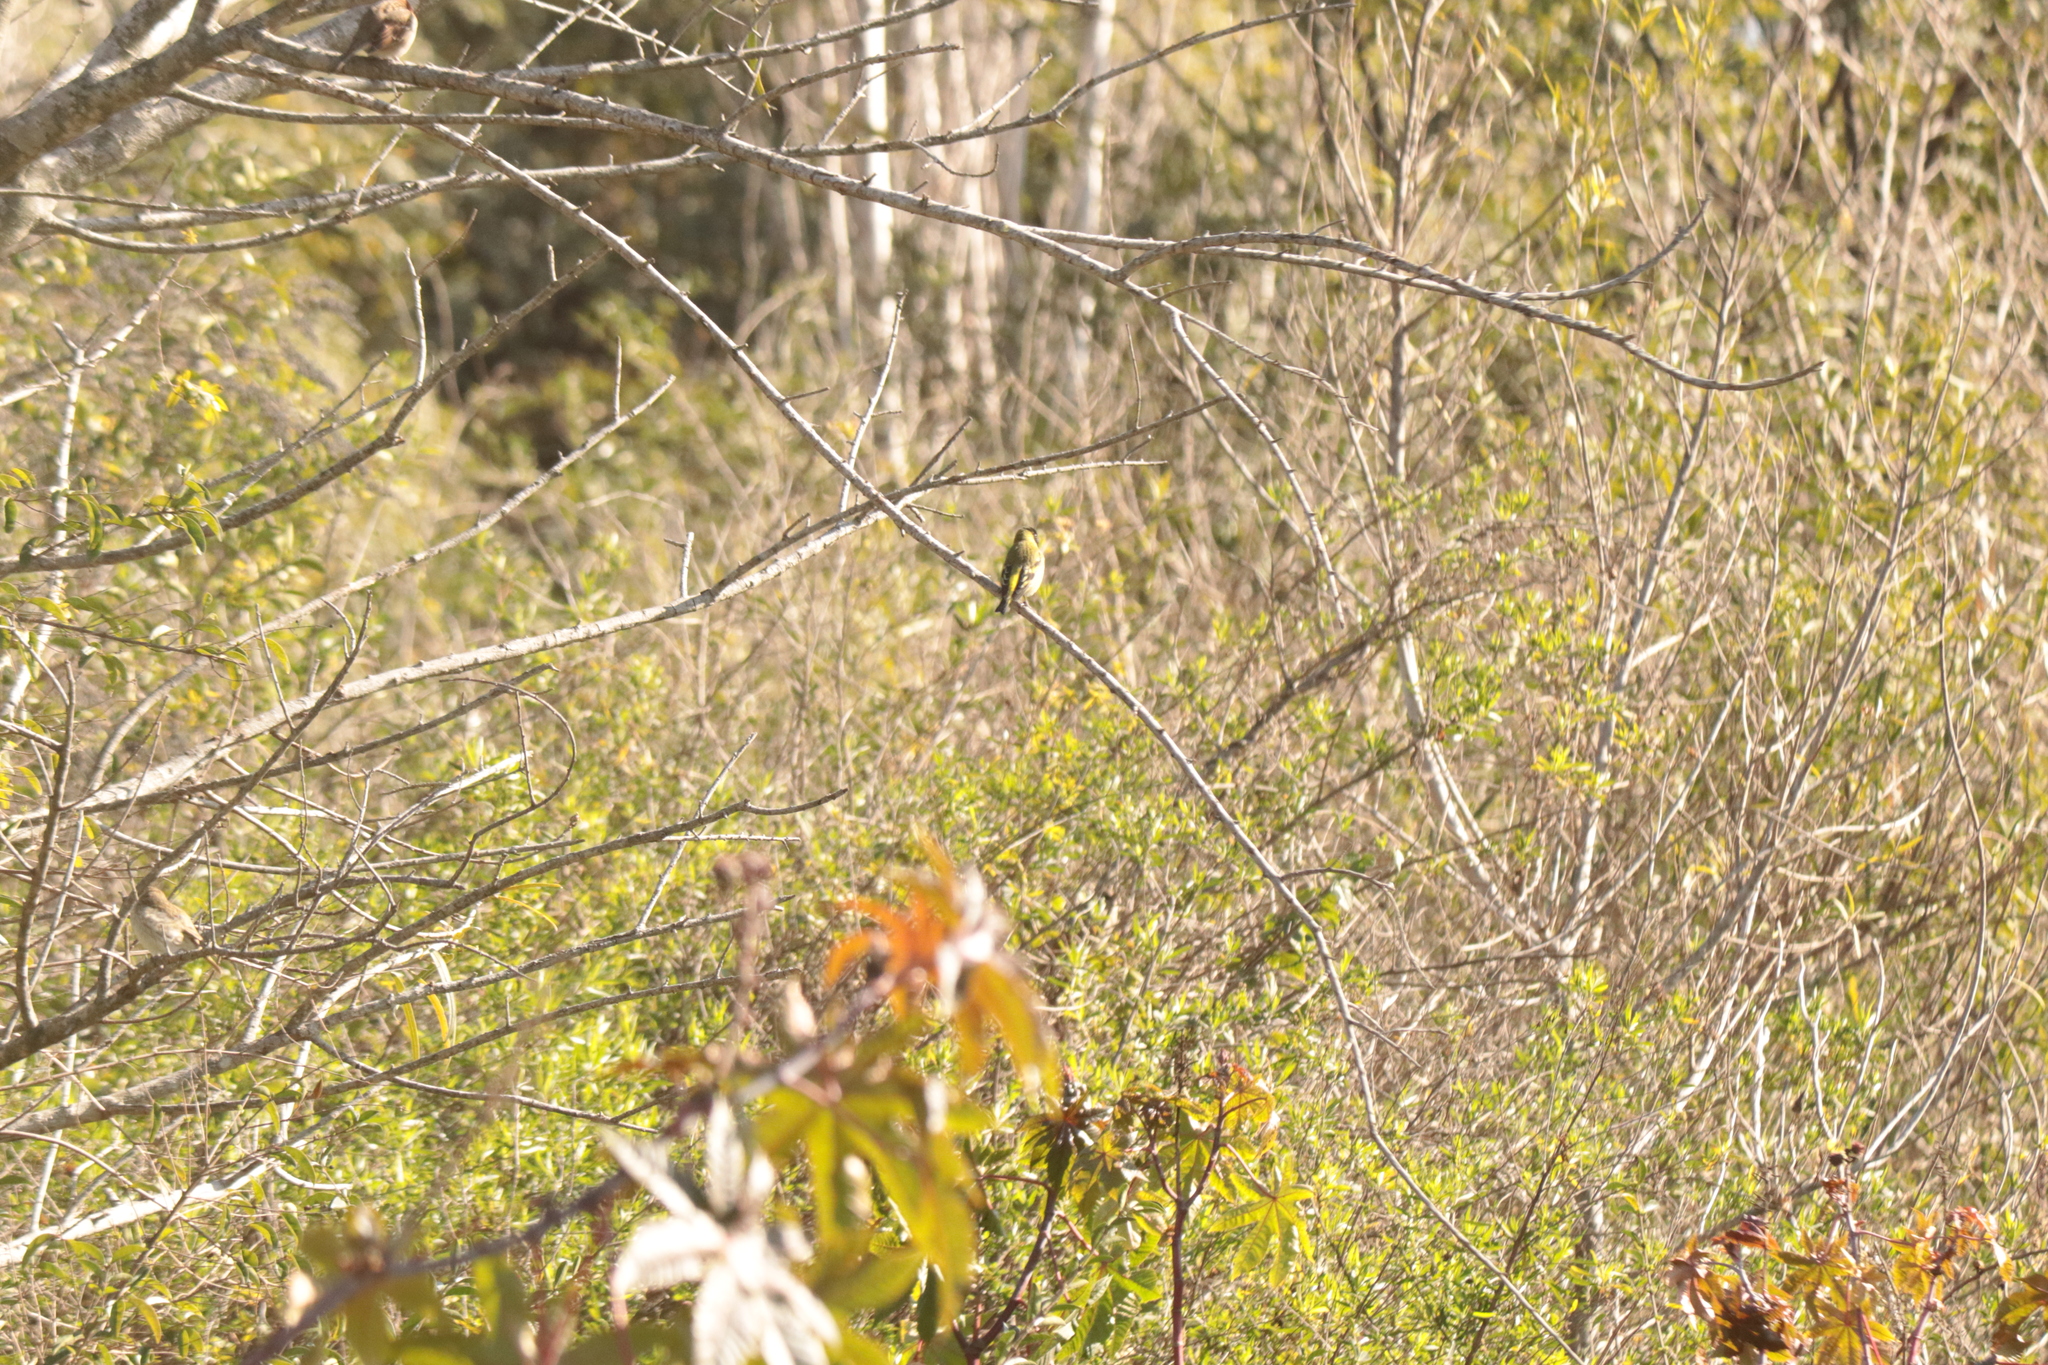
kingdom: Animalia
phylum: Chordata
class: Aves
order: Passeriformes
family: Fringillidae
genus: Spinus
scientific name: Spinus magellanicus
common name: Hooded siskin
